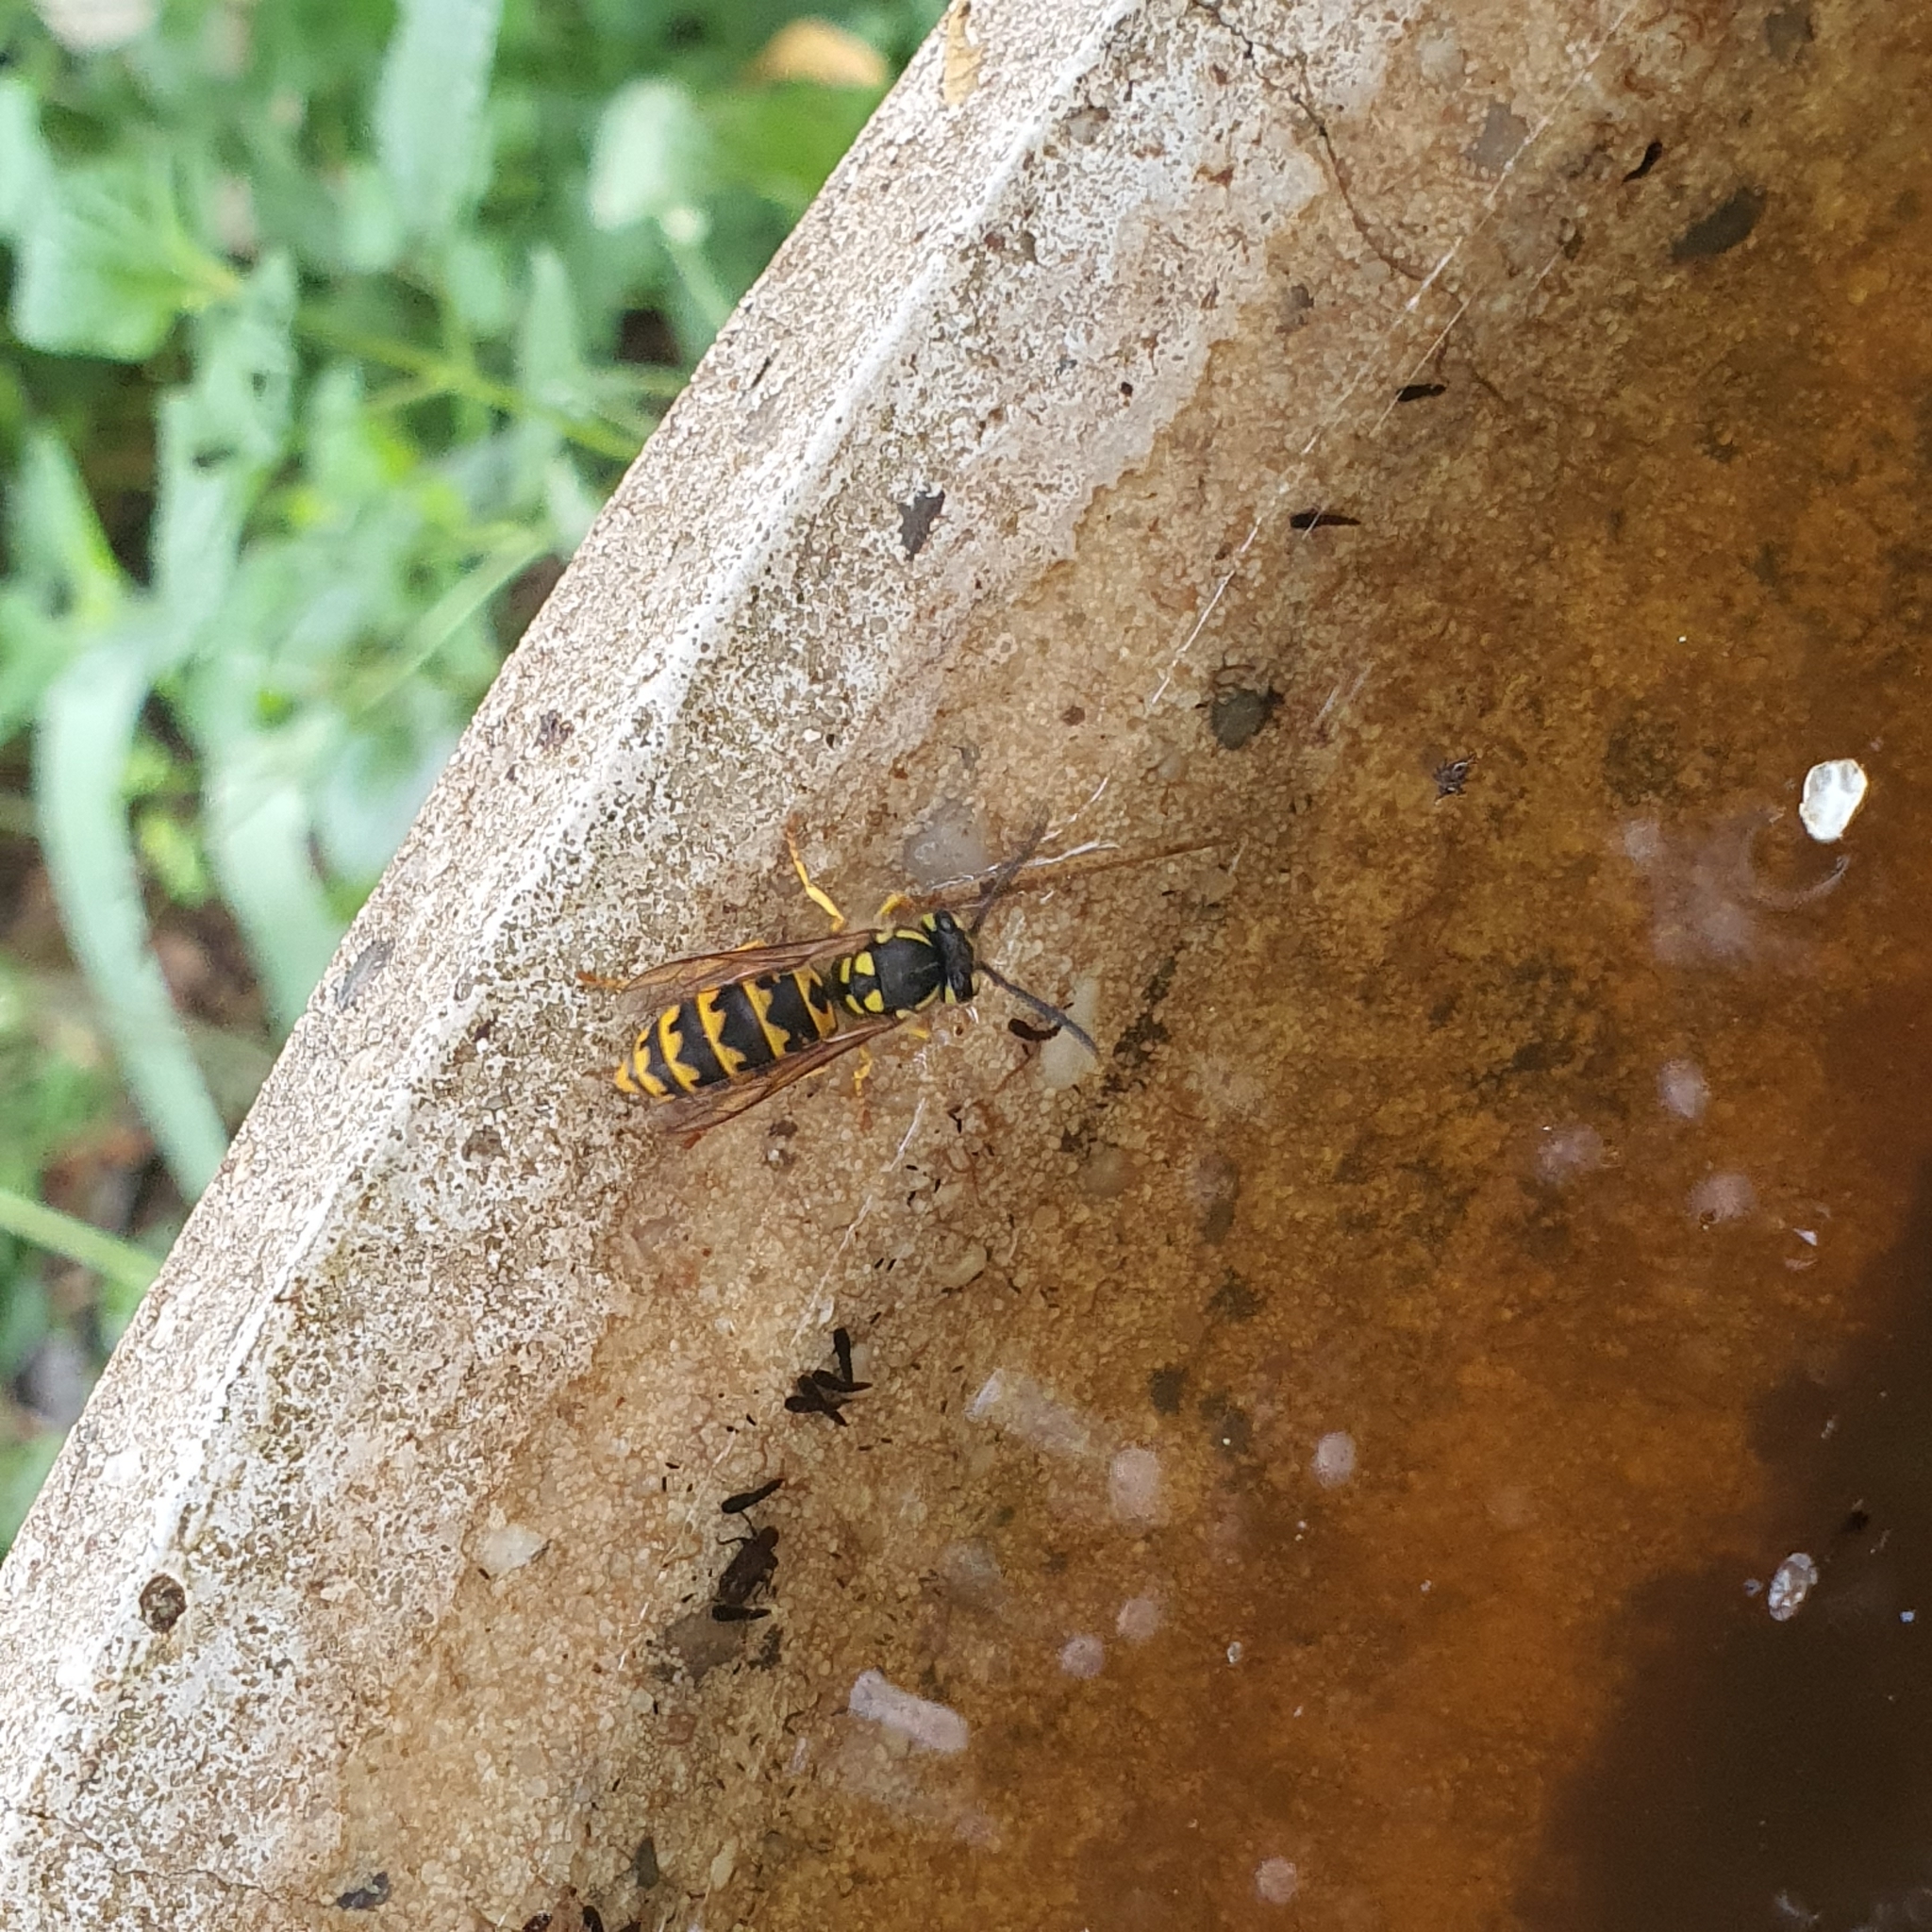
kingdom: Animalia
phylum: Arthropoda
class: Insecta
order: Hymenoptera
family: Vespidae
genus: Vespula
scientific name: Vespula germanica
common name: German wasp
